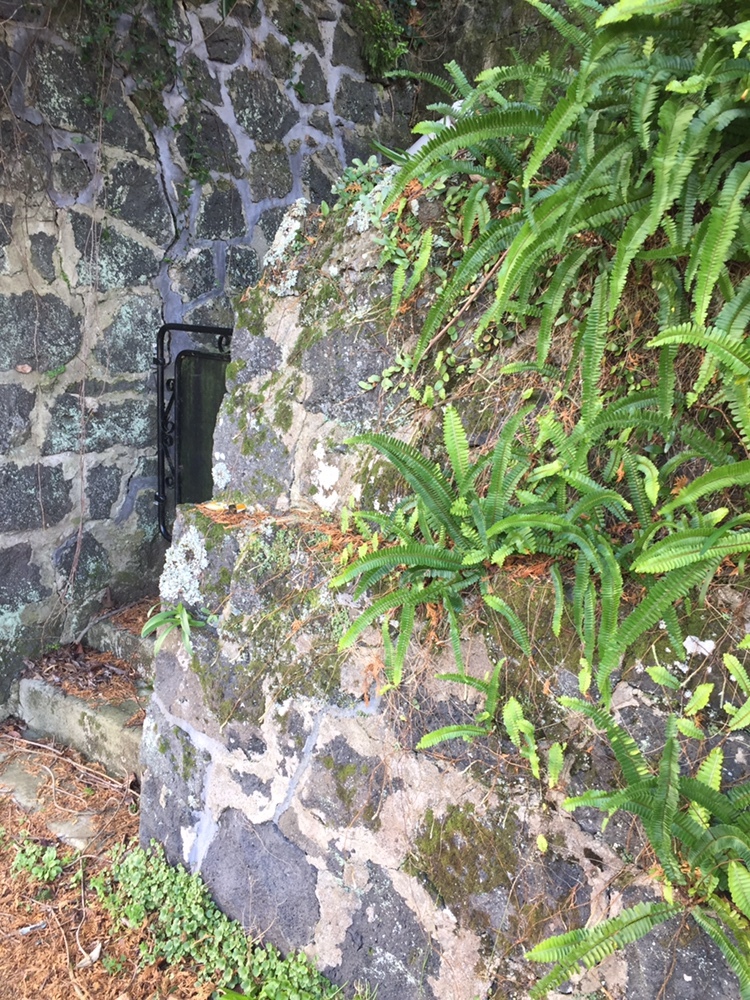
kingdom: Animalia
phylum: Arthropoda
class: Insecta
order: Lepidoptera
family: Tortricidae
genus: Philocryptica
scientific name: Philocryptica polypodii
